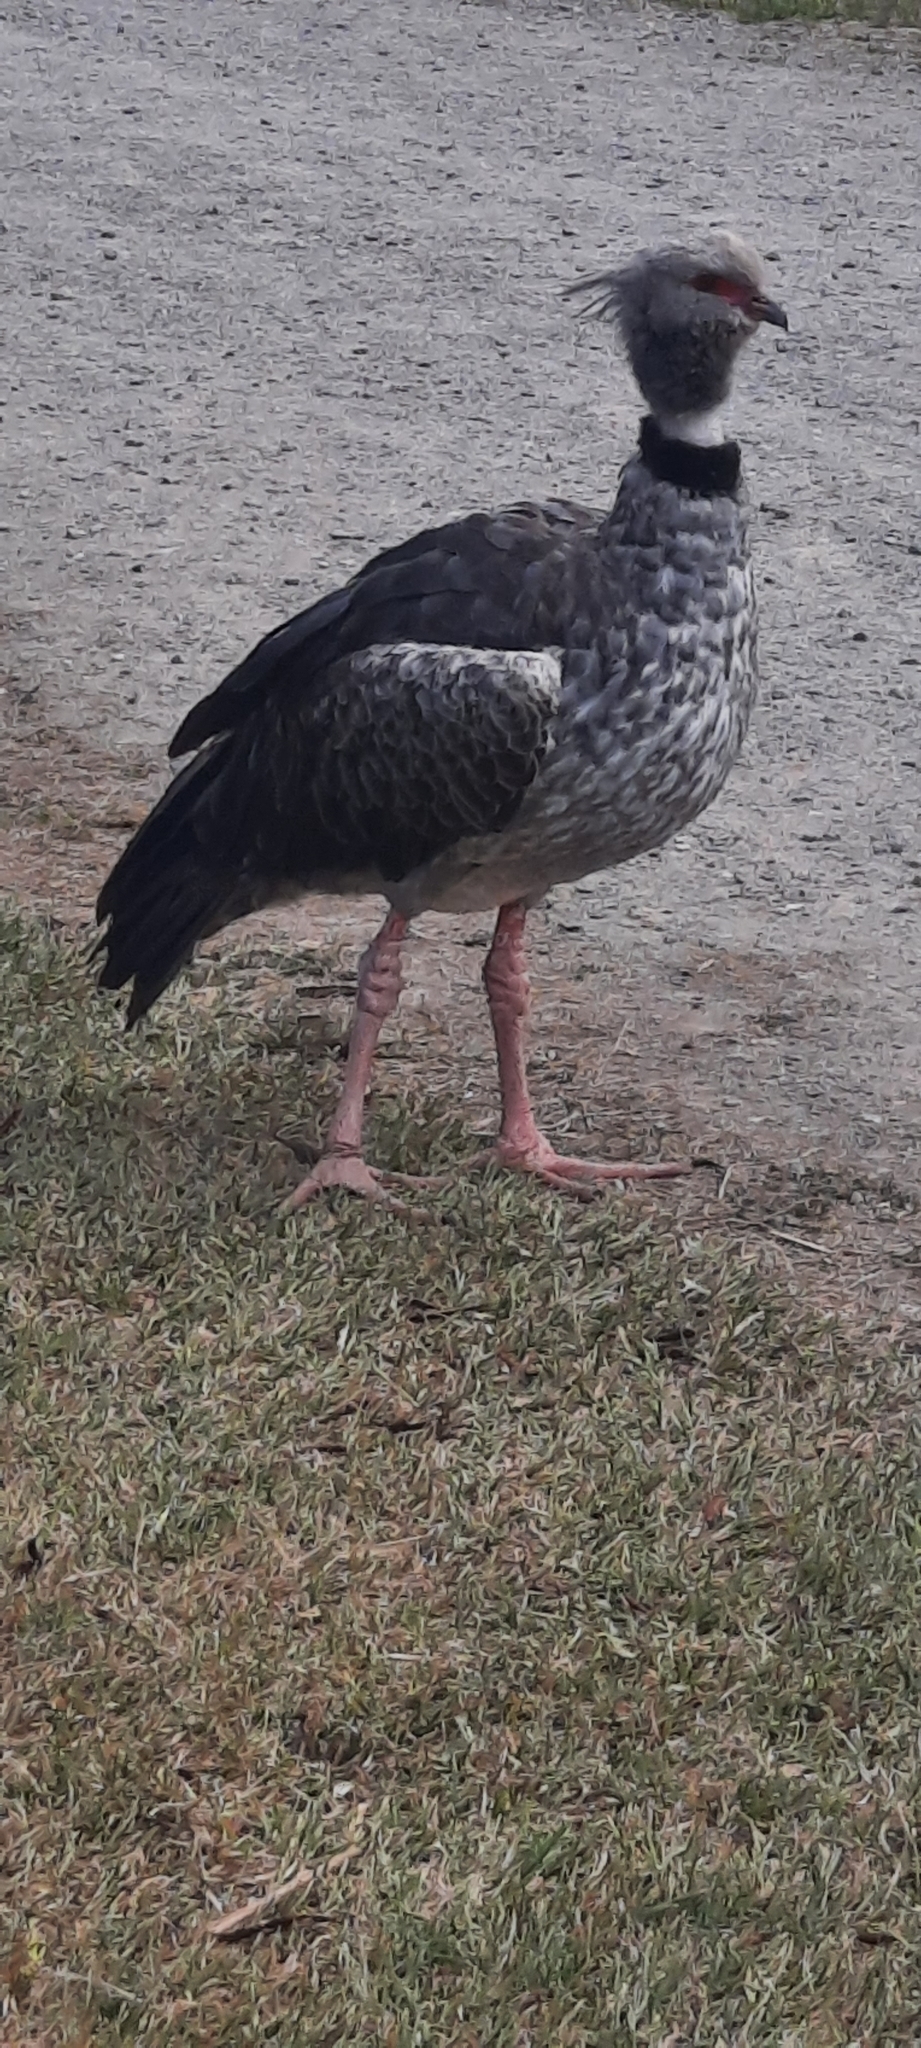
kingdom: Animalia
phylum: Chordata
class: Aves
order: Anseriformes
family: Anhimidae
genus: Chauna
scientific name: Chauna torquata
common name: Southern screamer
